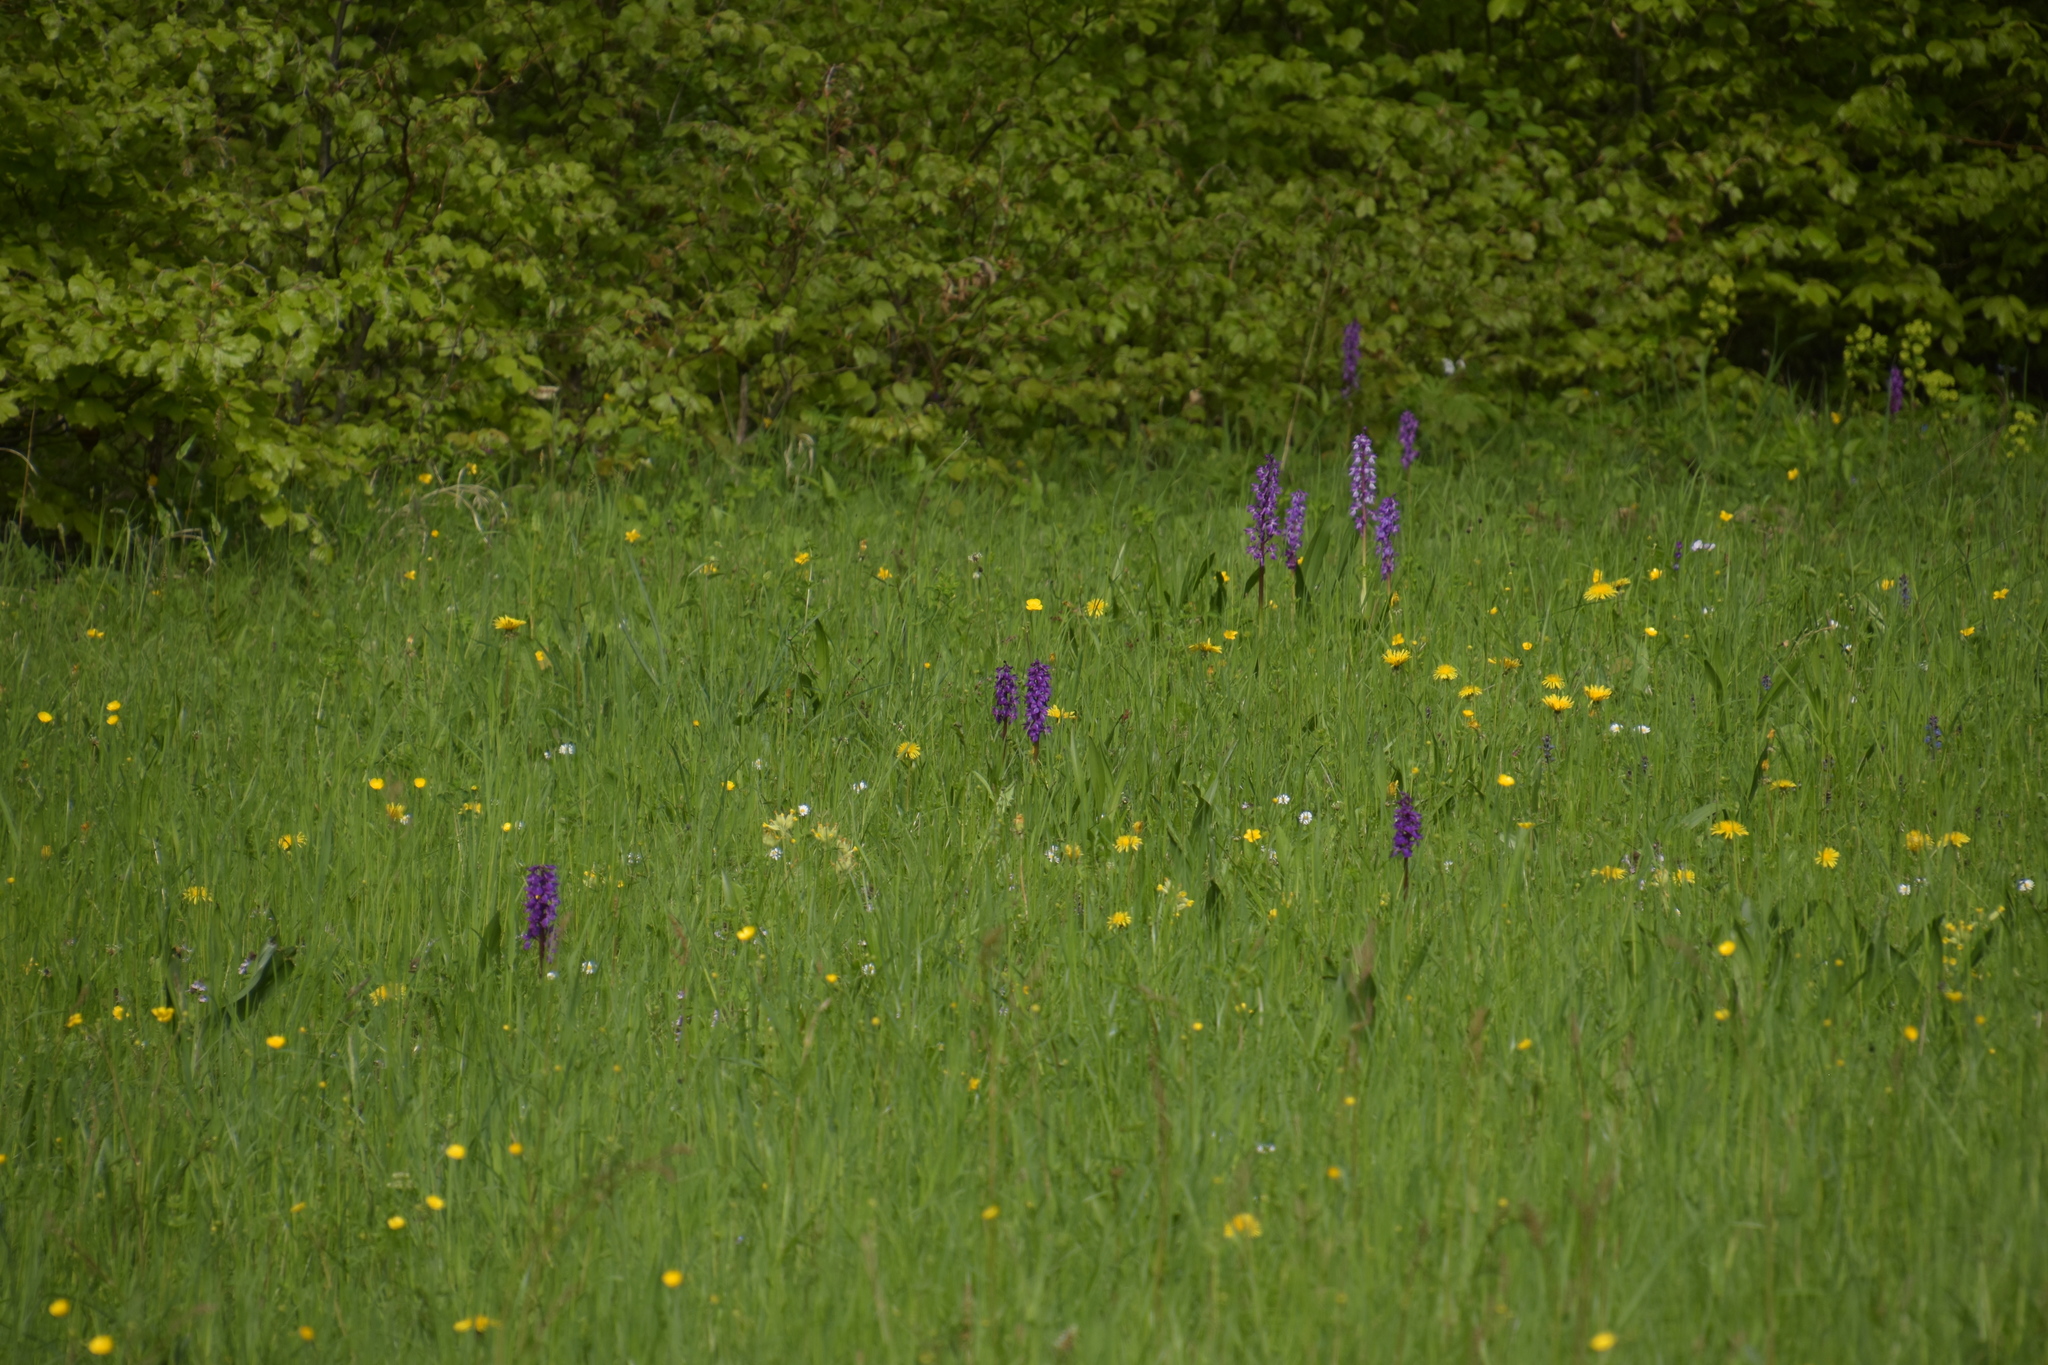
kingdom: Plantae
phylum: Tracheophyta
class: Liliopsida
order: Asparagales
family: Orchidaceae
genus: Orchis
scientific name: Orchis mascula
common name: Early-purple orchid
